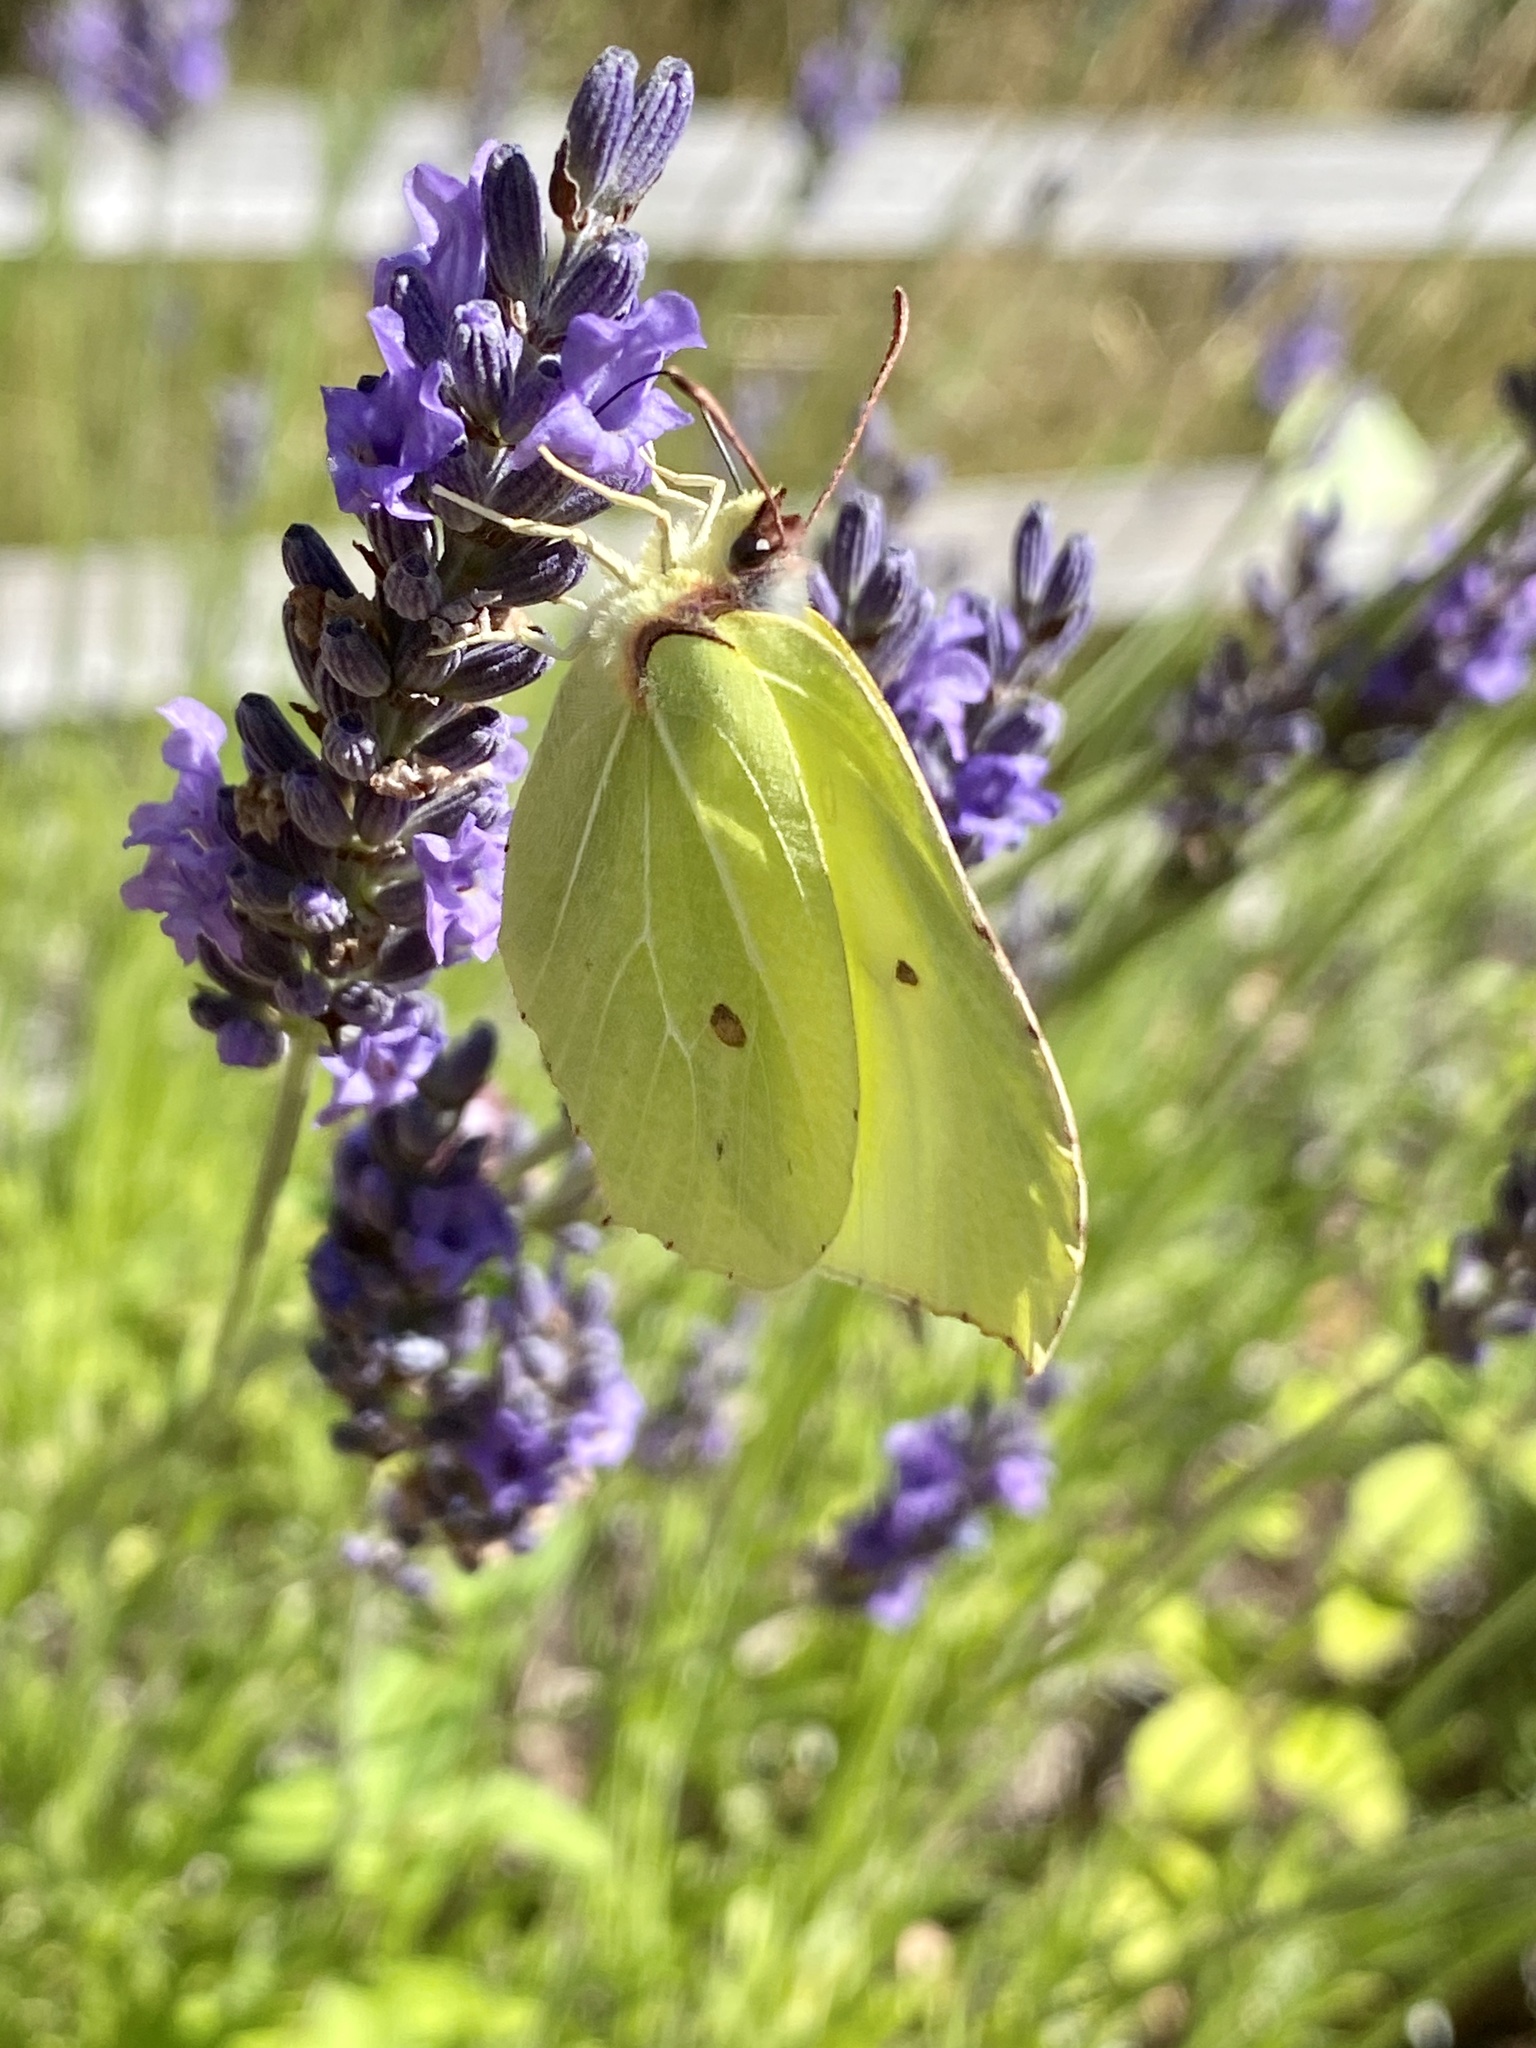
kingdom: Animalia
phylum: Arthropoda
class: Insecta
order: Lepidoptera
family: Pieridae
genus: Gonepteryx
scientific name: Gonepteryx rhamni
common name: Brimstone
